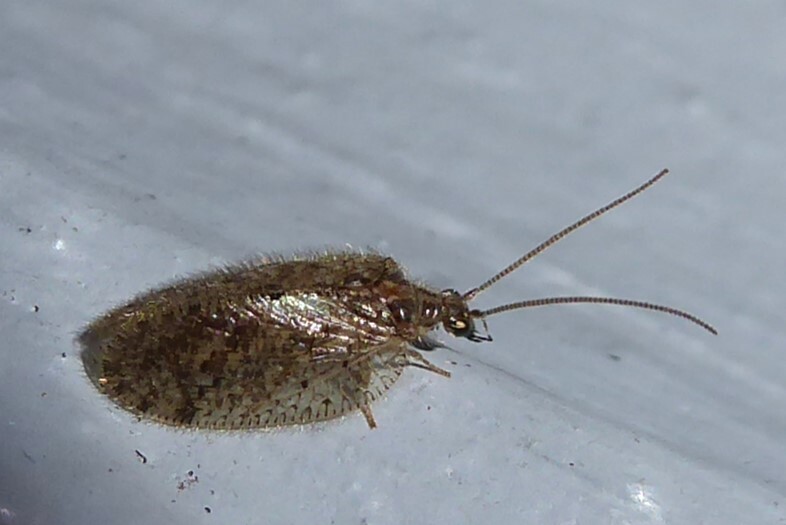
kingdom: Animalia
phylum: Arthropoda
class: Insecta
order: Neuroptera
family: Hemerobiidae
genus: Psectra
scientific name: Psectra nakaharai
